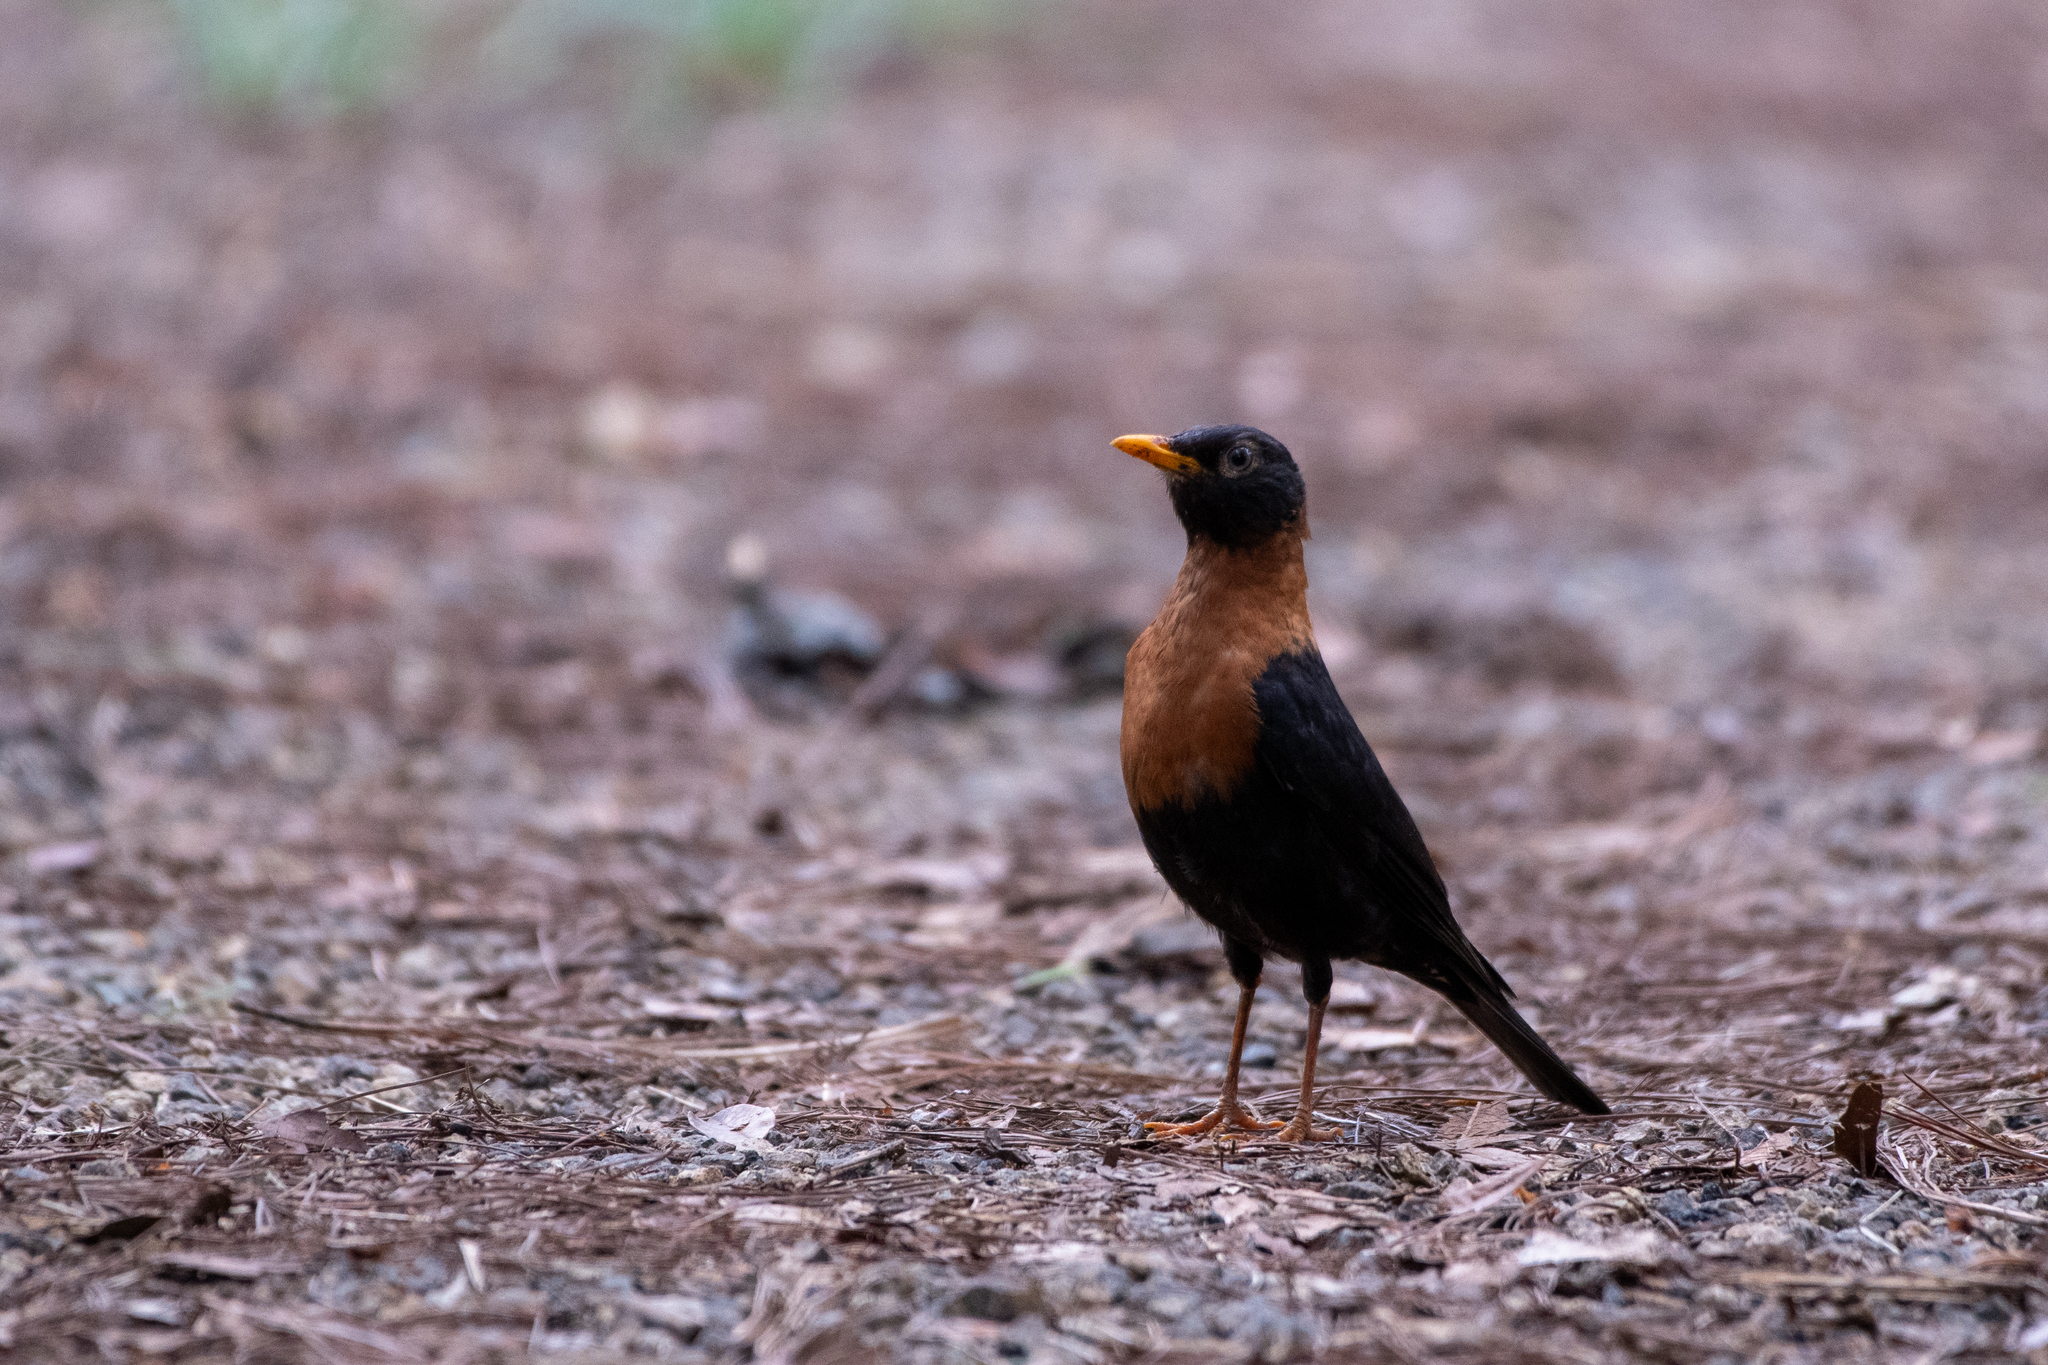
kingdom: Animalia
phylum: Chordata
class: Aves
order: Passeriformes
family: Turdidae
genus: Turdus
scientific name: Turdus rufitorques
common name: Rufous-collared thrush
